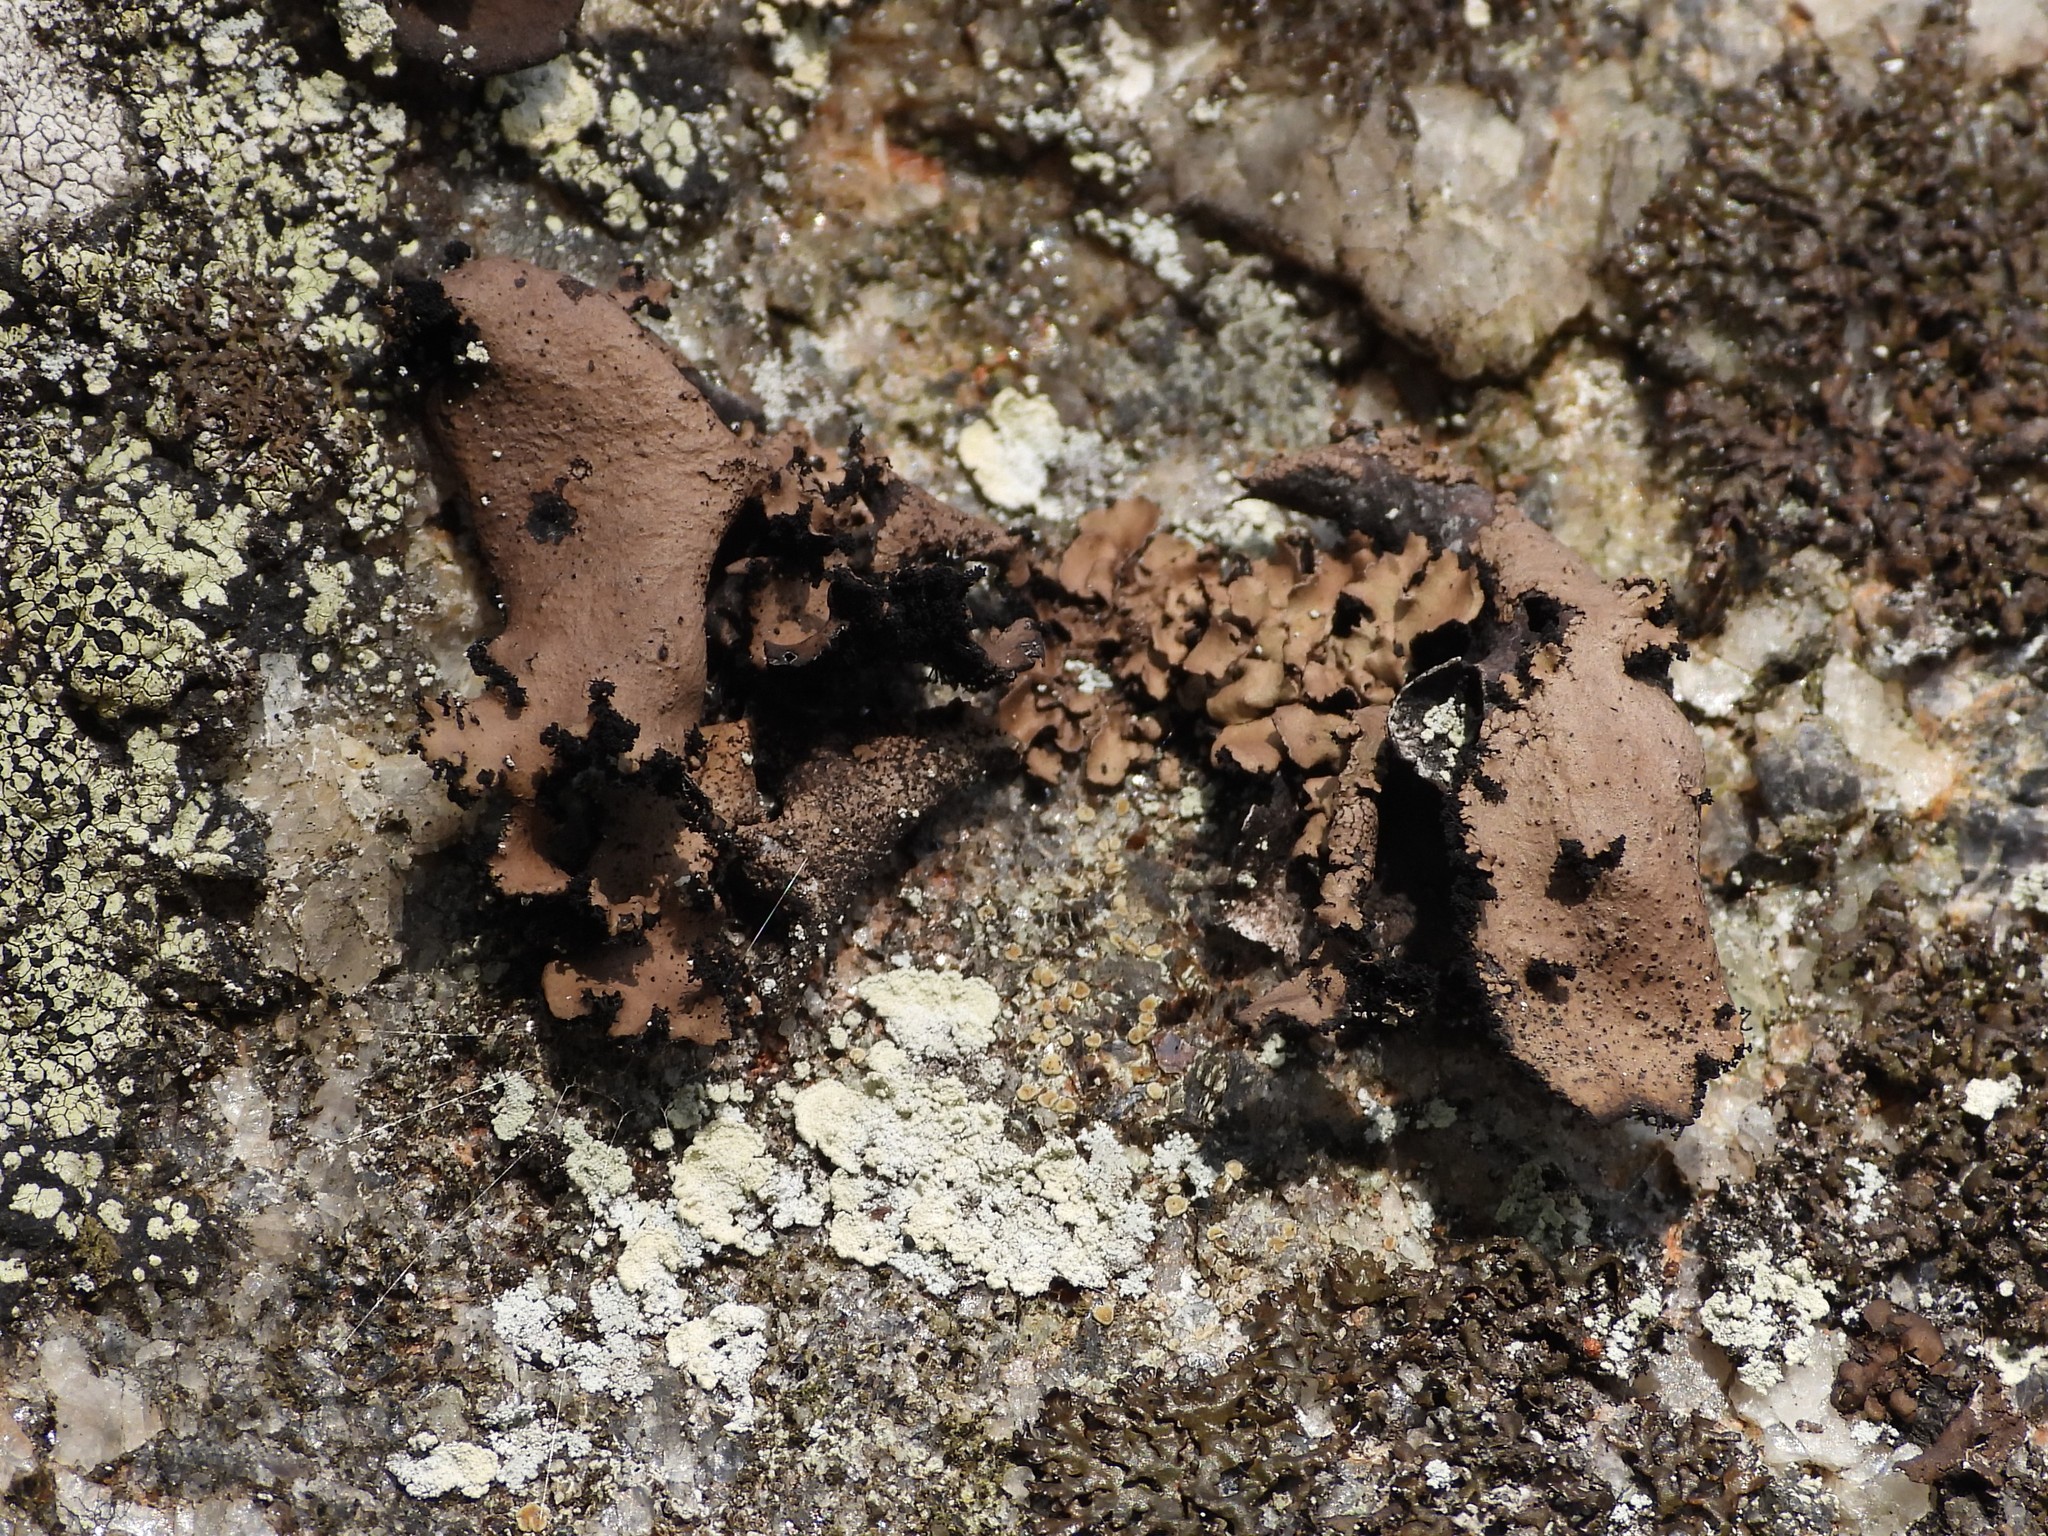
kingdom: Fungi
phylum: Ascomycota
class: Lecanoromycetes
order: Umbilicariales
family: Umbilicariaceae
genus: Umbilicaria
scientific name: Umbilicaria polyrrhiza
